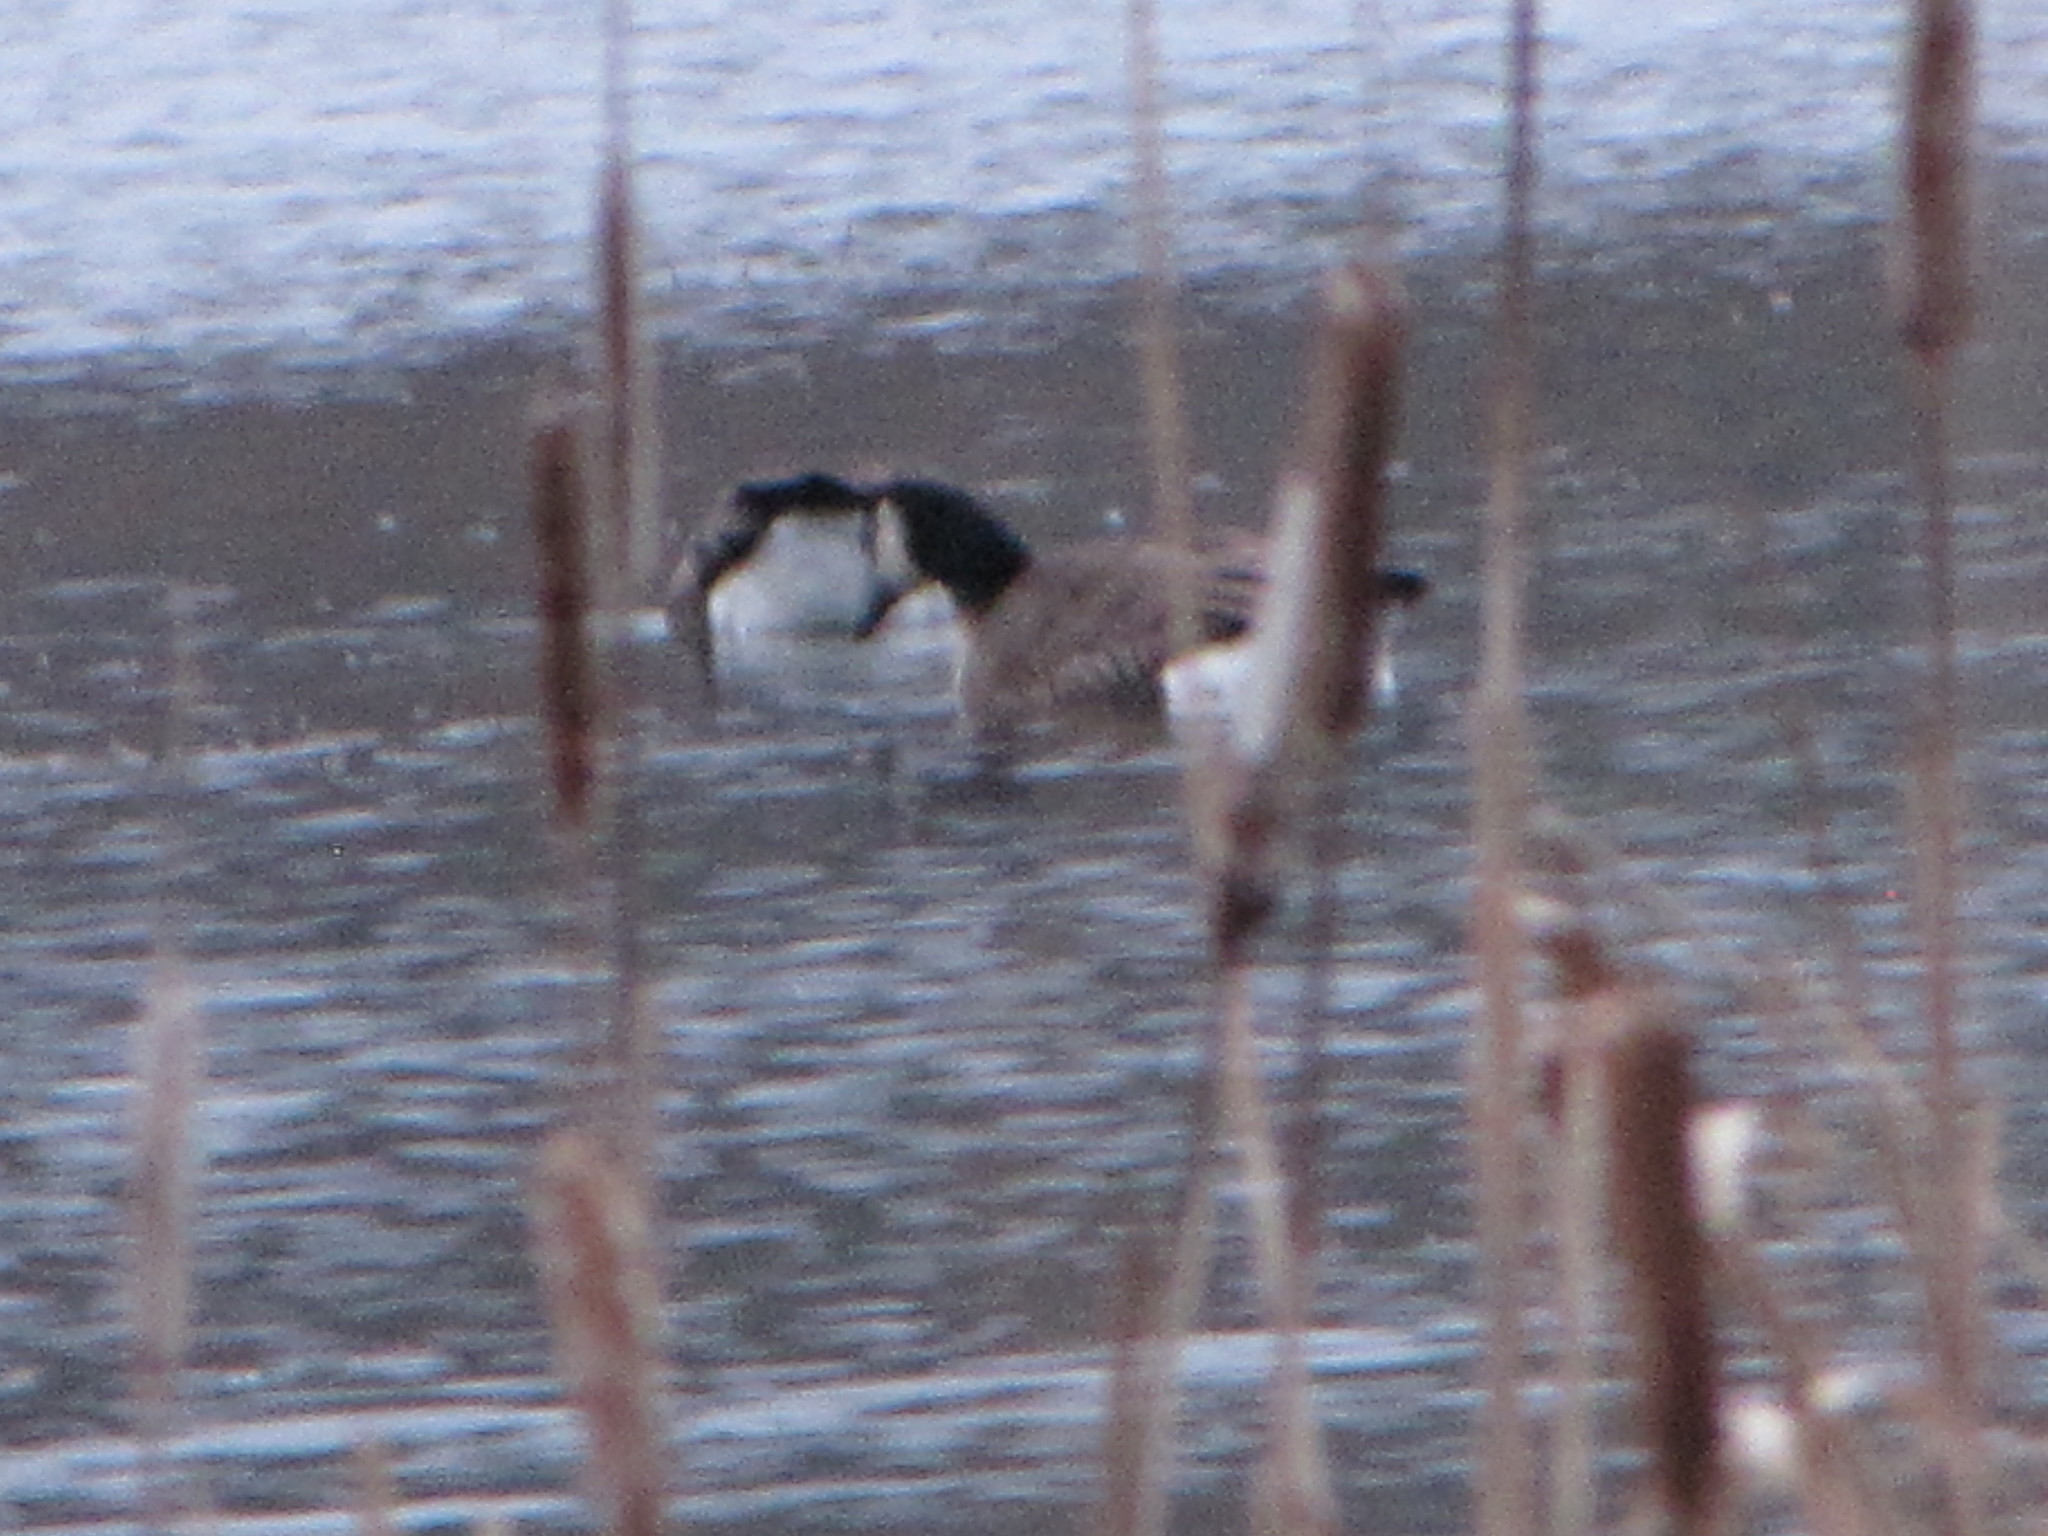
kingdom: Animalia
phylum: Chordata
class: Aves
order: Anseriformes
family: Anatidae
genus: Branta
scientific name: Branta canadensis
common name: Canada goose
